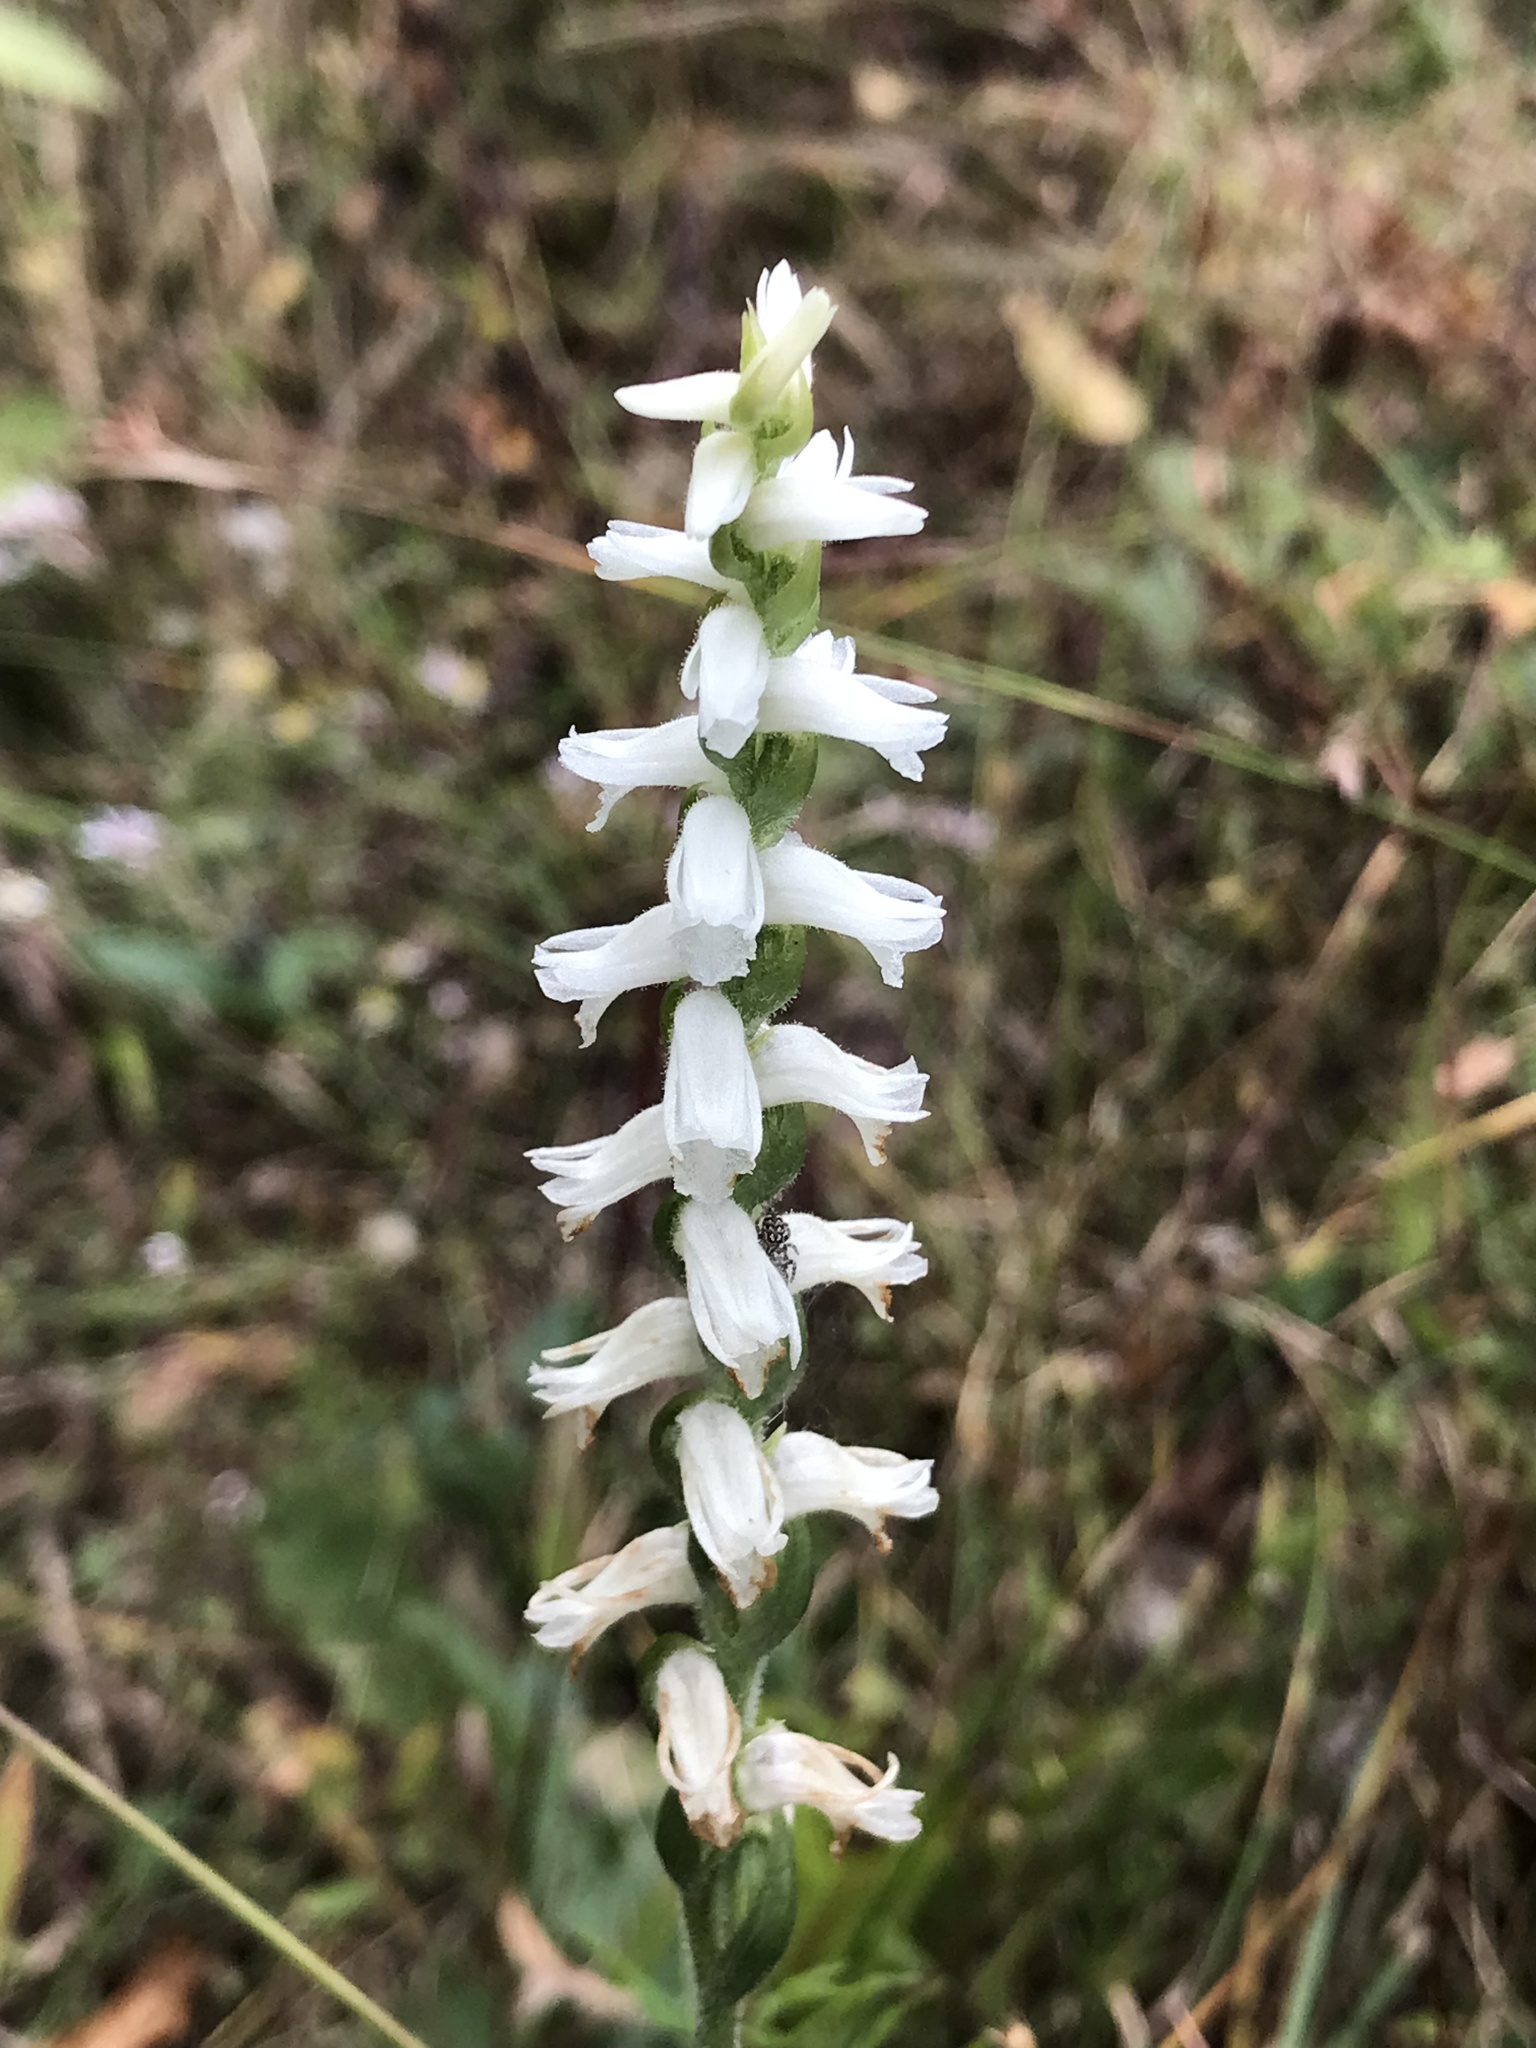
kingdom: Plantae
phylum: Tracheophyta
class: Liliopsida
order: Asparagales
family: Orchidaceae
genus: Spiranthes
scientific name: Spiranthes cernua
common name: Dropping ladies'-tresses
